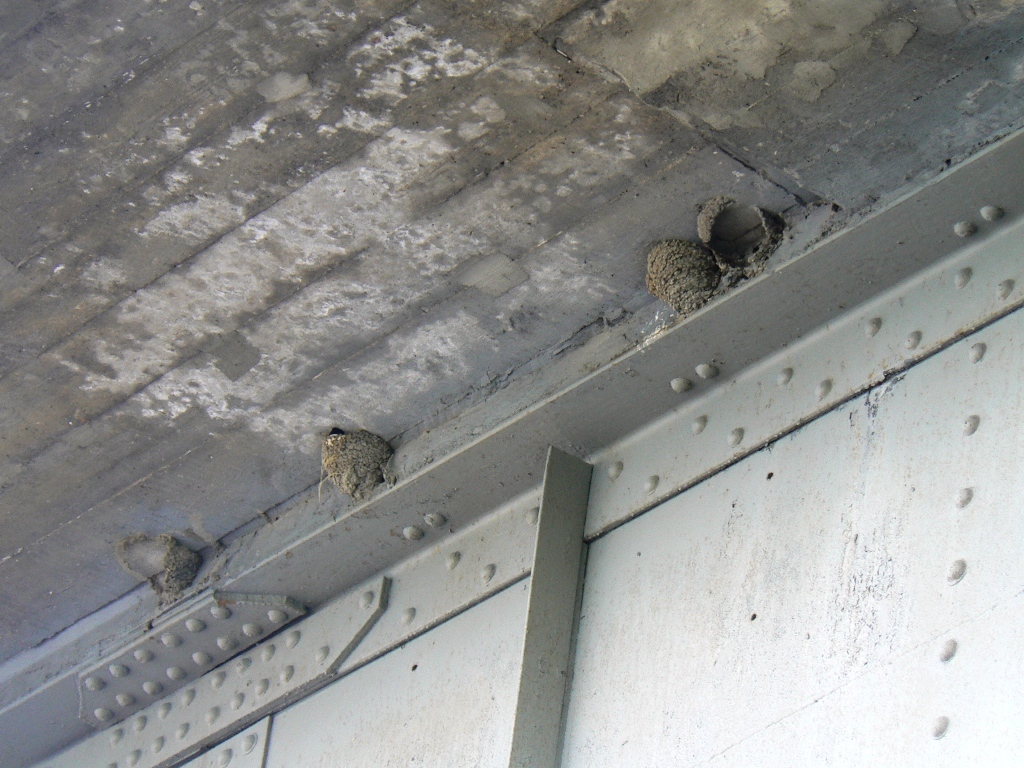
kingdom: Animalia
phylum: Chordata
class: Aves
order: Passeriformes
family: Hirundinidae
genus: Delichon
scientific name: Delichon urbicum
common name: Common house martin
